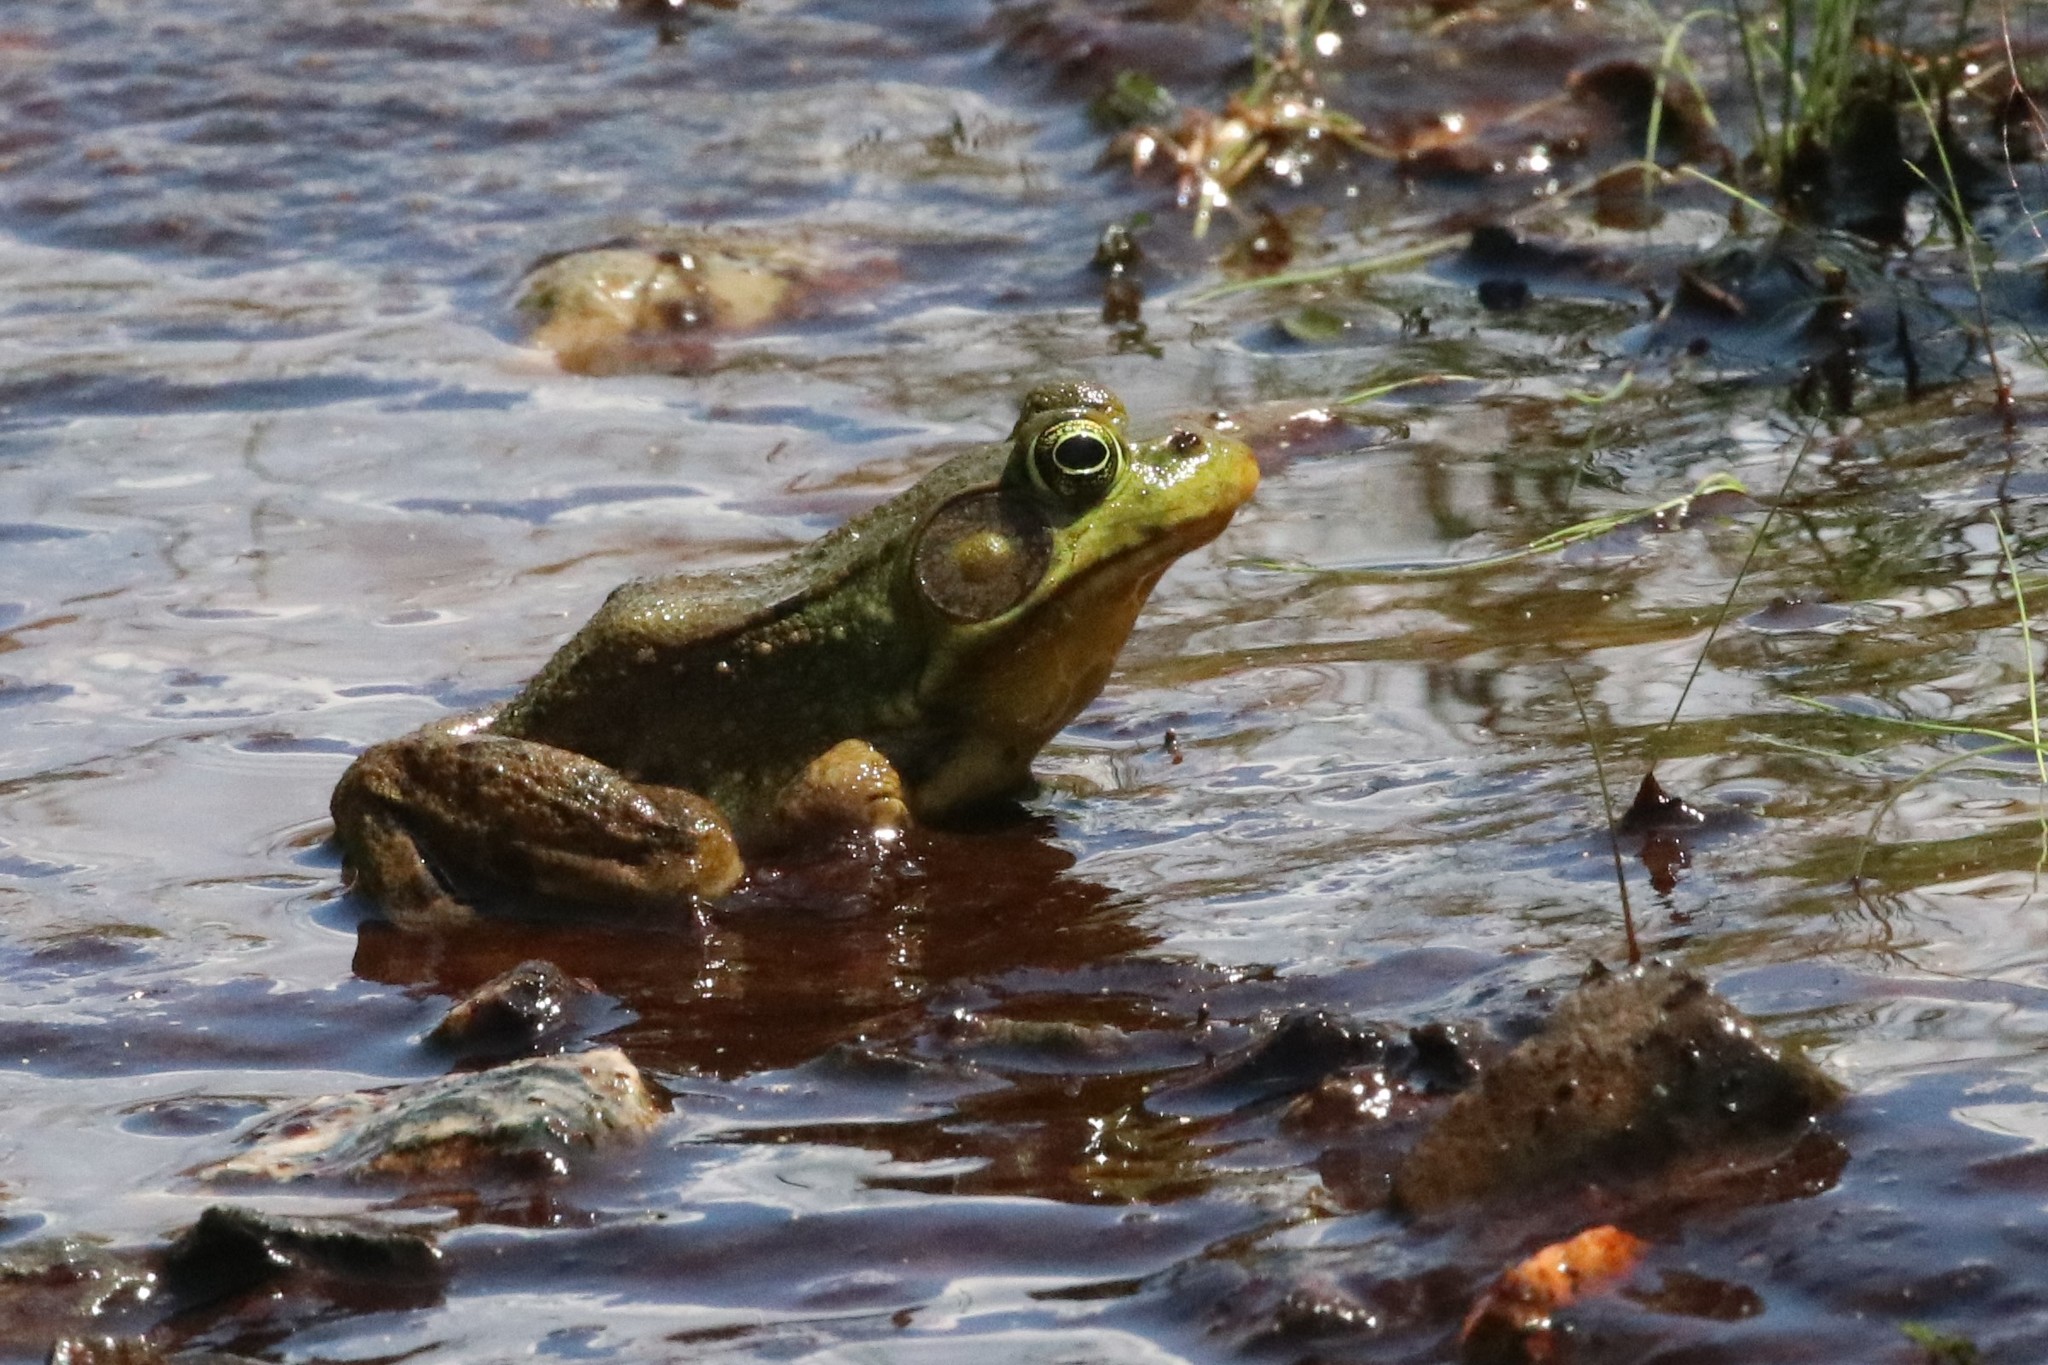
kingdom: Animalia
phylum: Chordata
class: Amphibia
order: Anura
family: Ranidae
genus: Lithobates
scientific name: Lithobates clamitans
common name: Green frog
